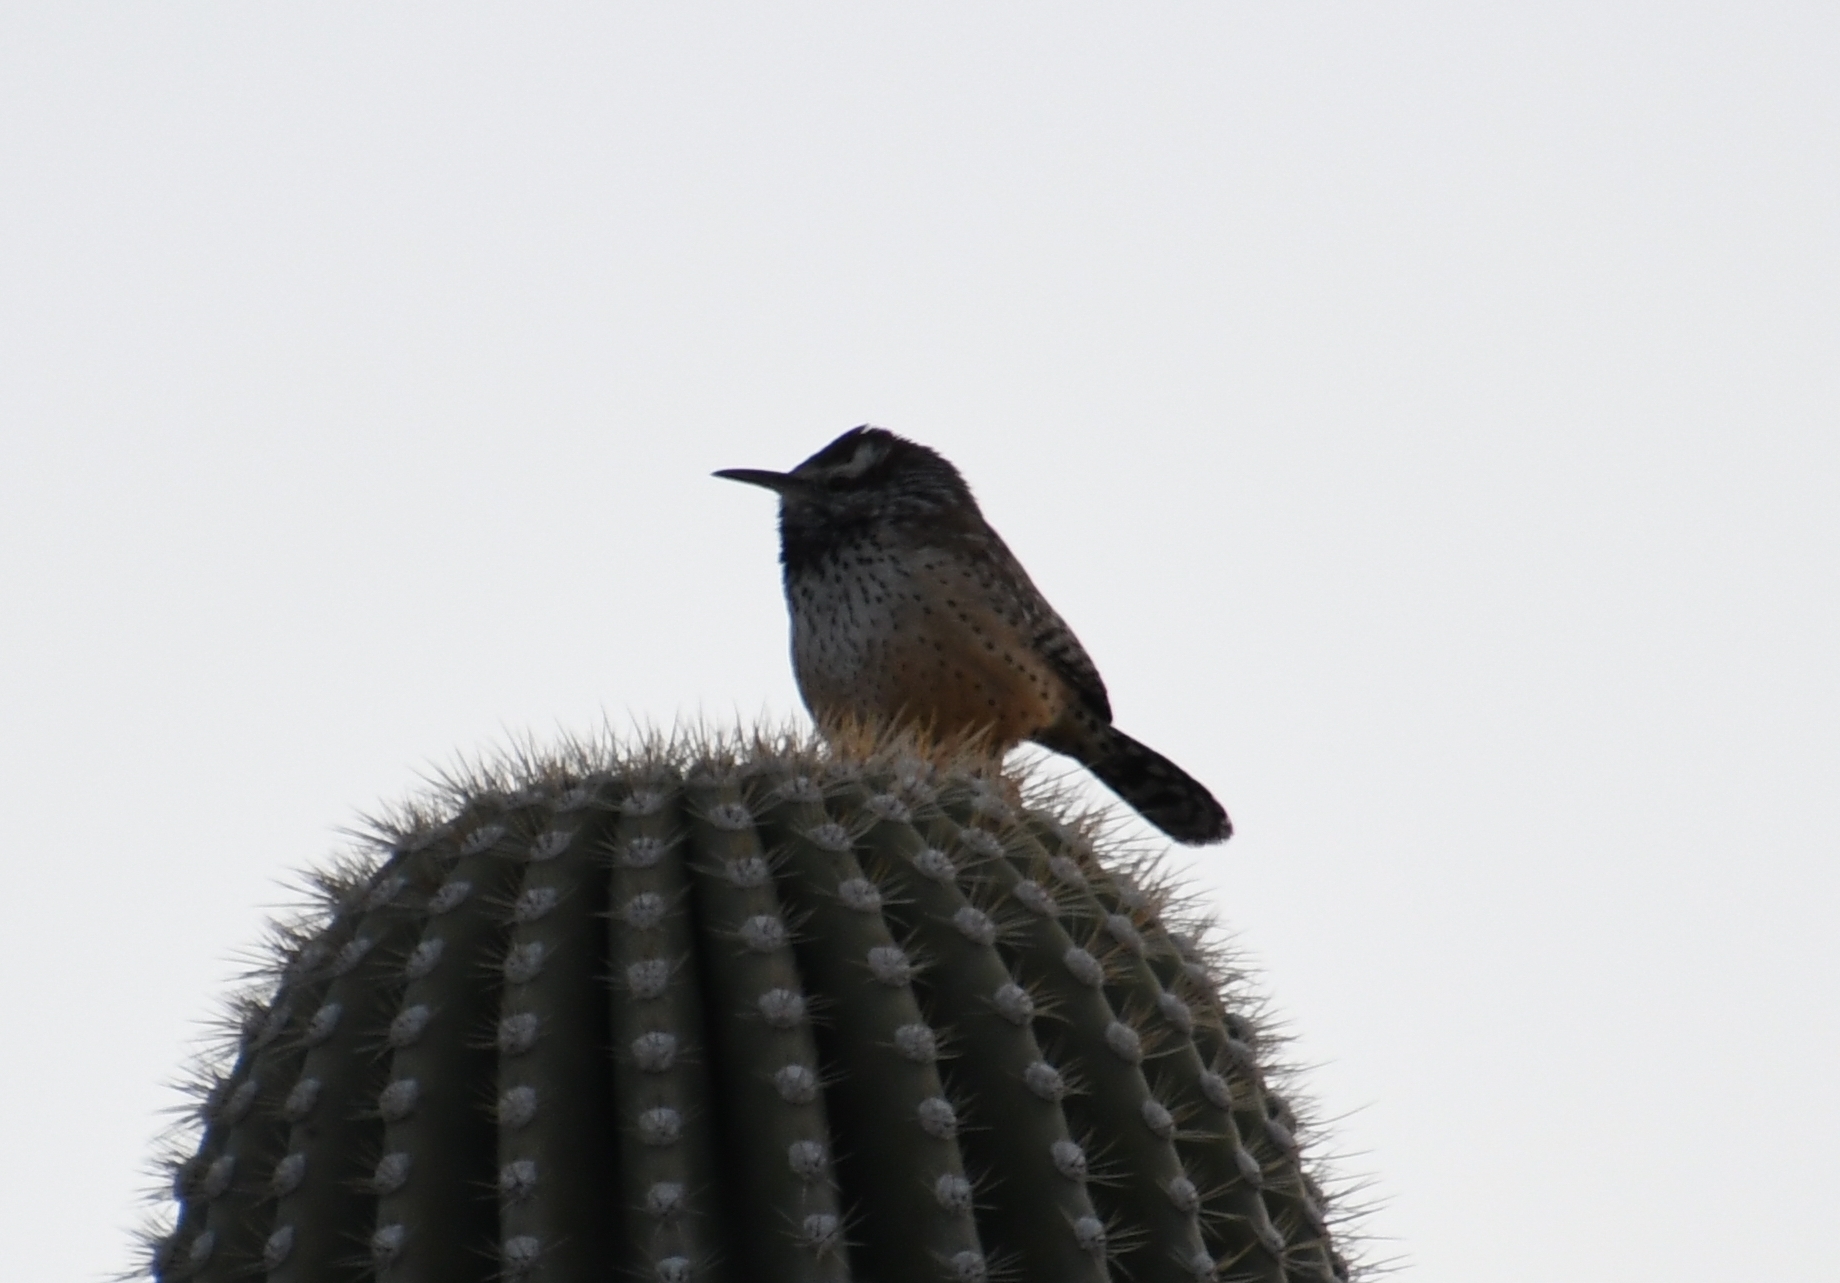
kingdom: Animalia
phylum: Chordata
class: Aves
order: Passeriformes
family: Troglodytidae
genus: Campylorhynchus
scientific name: Campylorhynchus brunneicapillus
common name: Cactus wren
